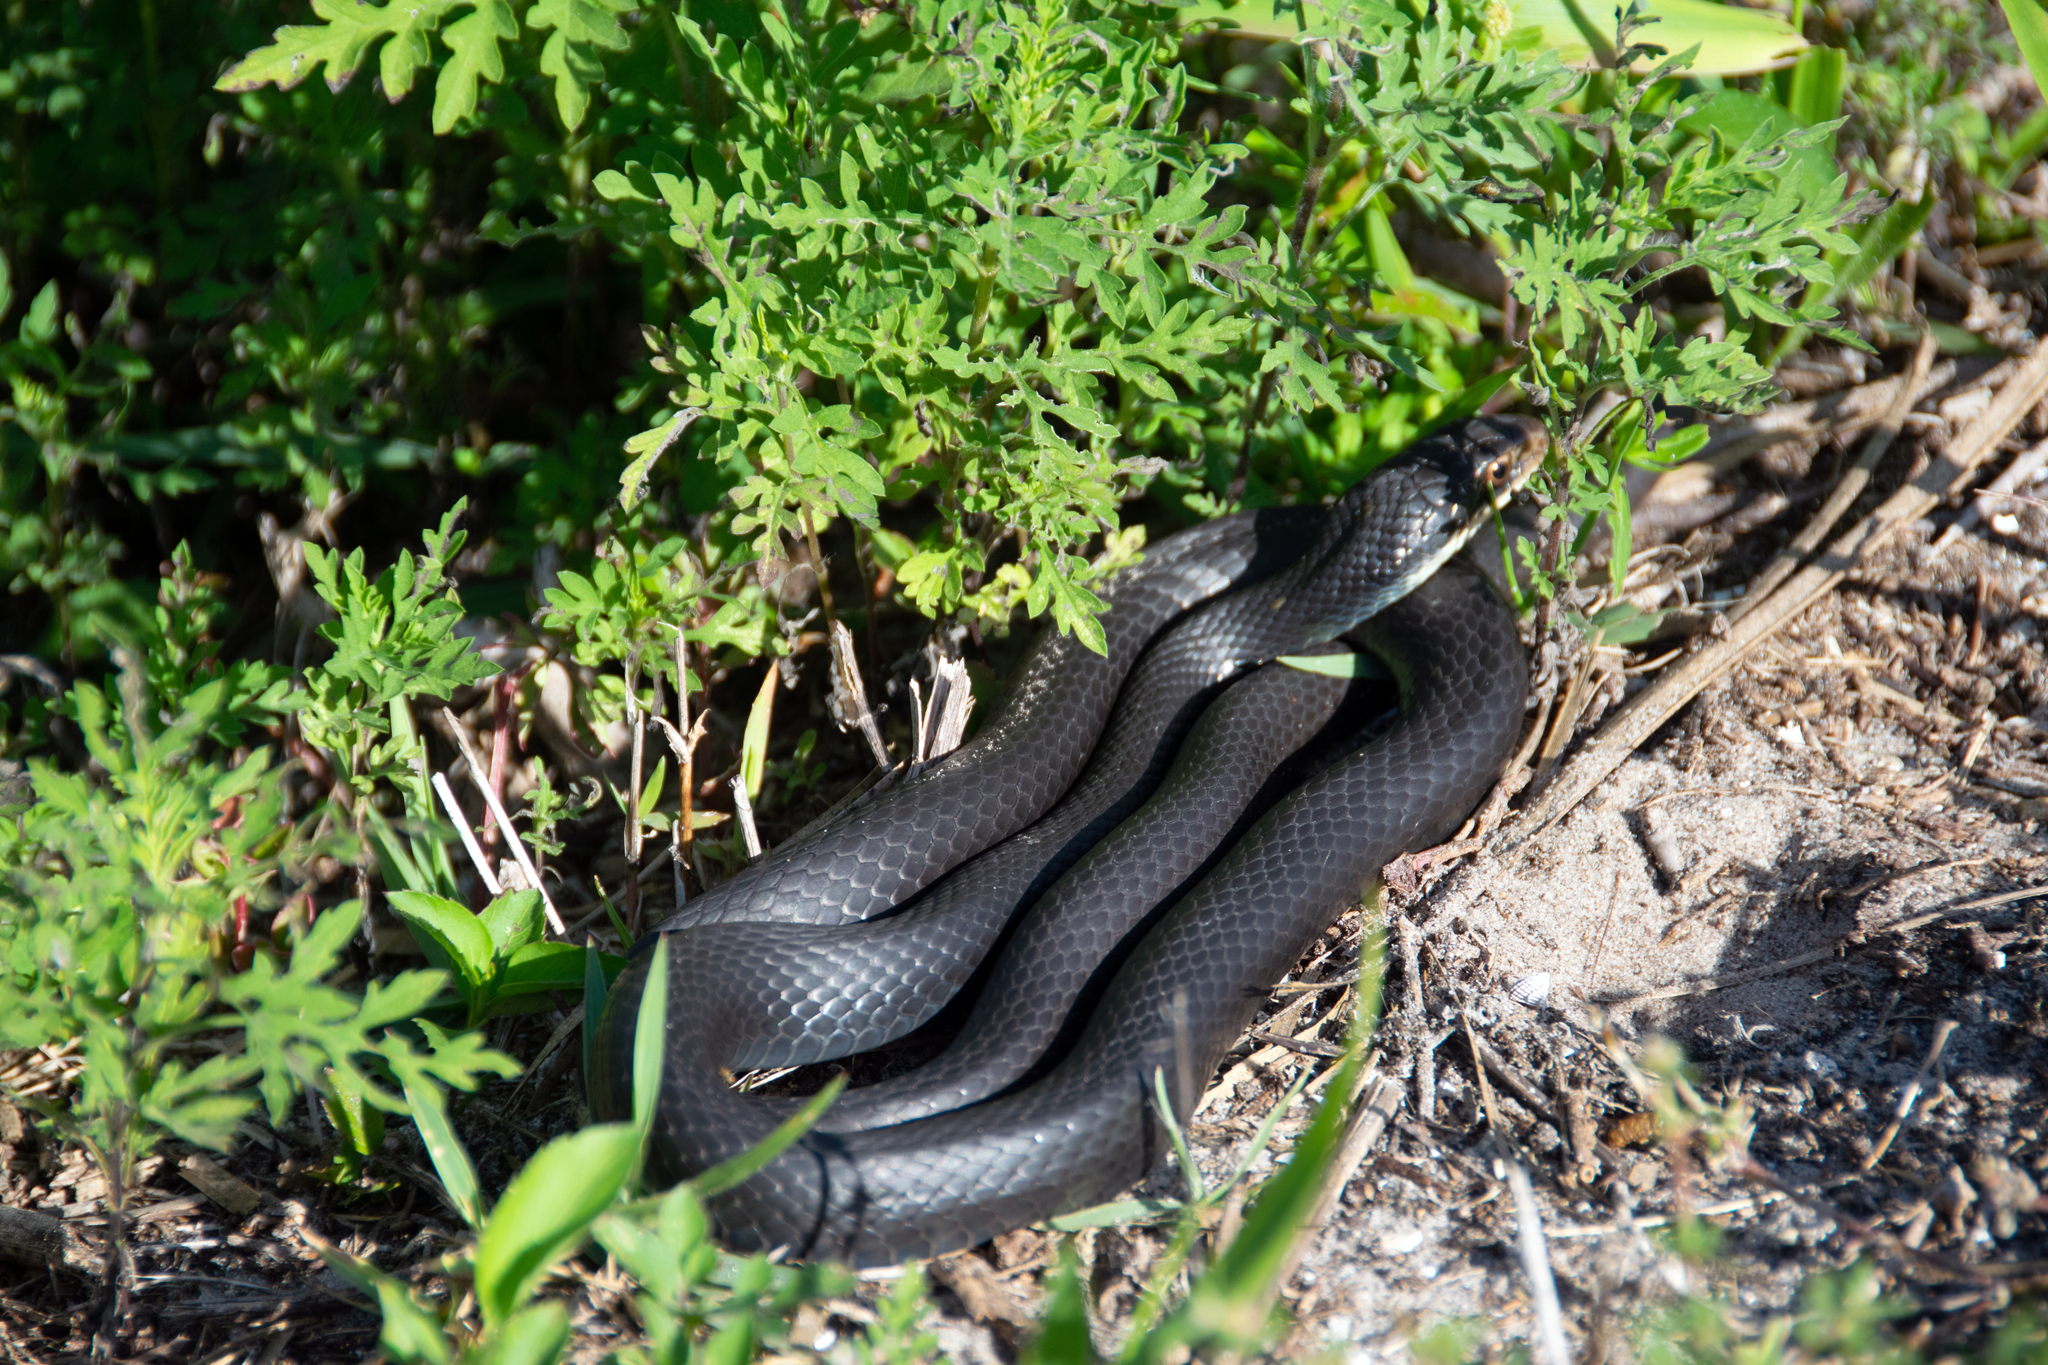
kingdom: Animalia
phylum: Chordata
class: Squamata
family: Colubridae
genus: Coluber
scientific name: Coluber constrictor
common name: Eastern racer
